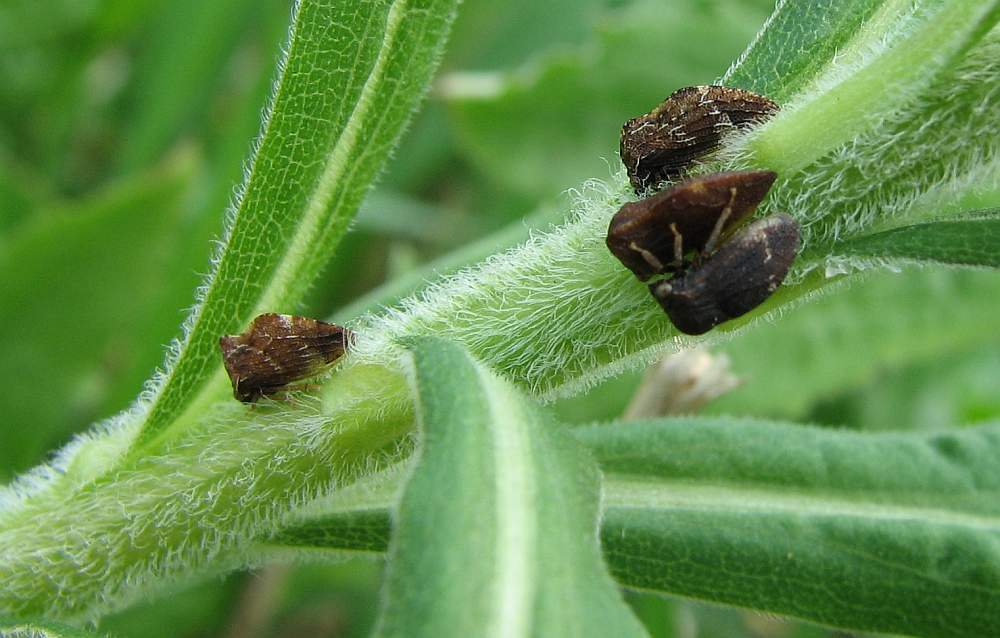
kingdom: Animalia
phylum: Arthropoda
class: Insecta
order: Hemiptera
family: Membracidae
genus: Publilia
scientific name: Publilia concava
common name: Aster treehopper
